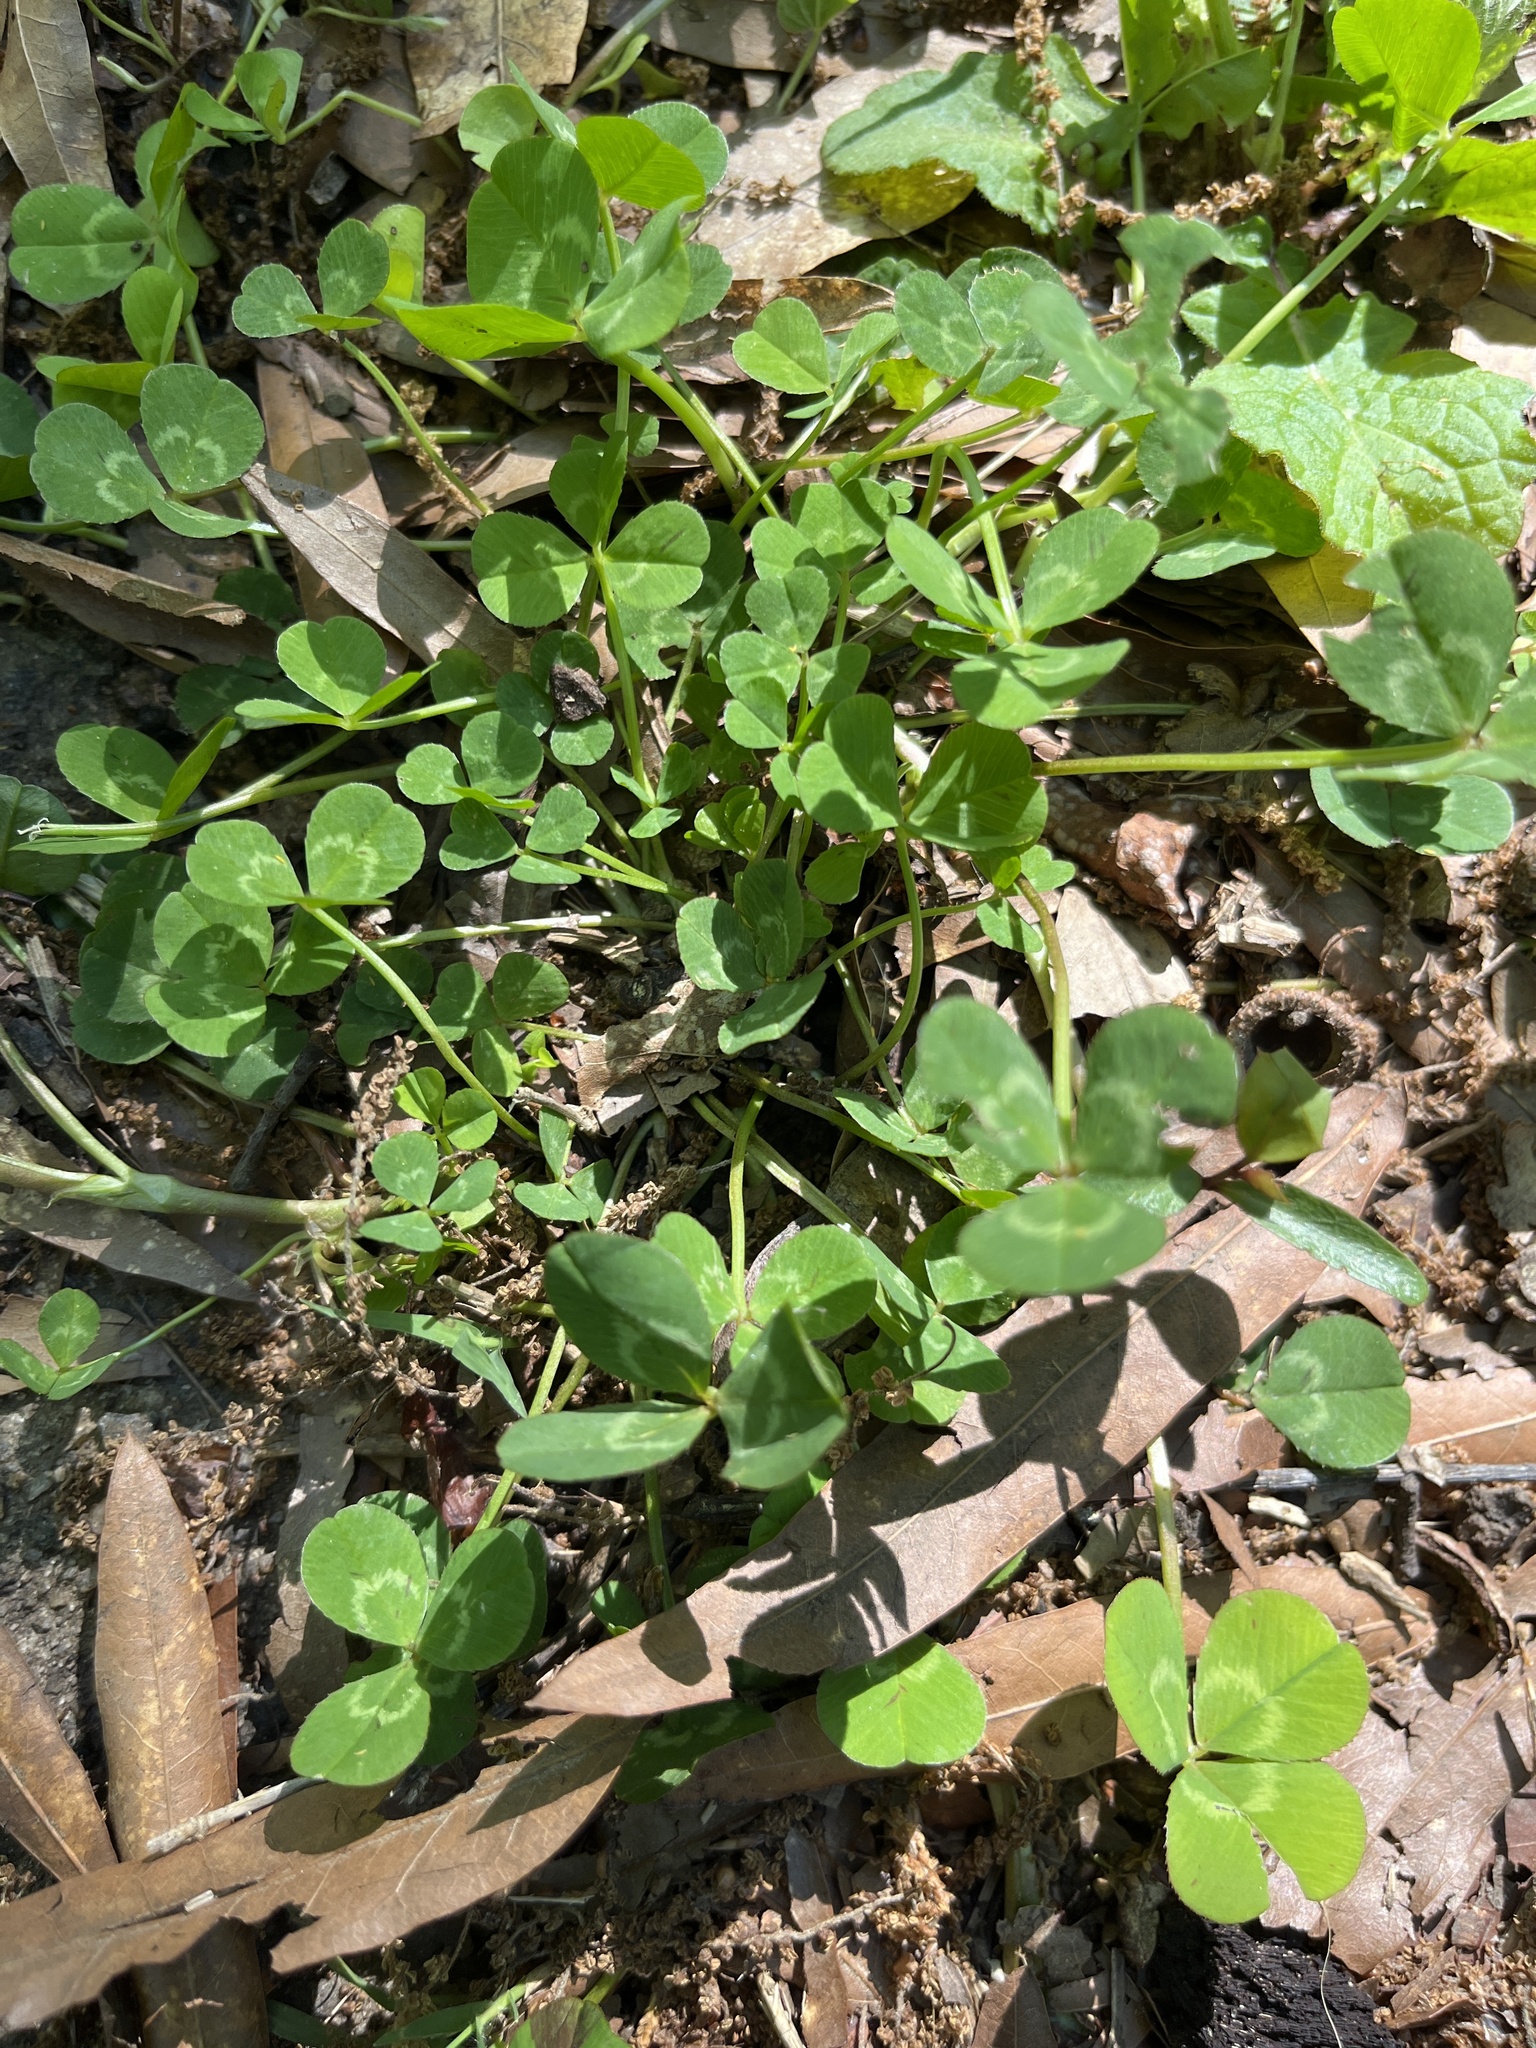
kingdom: Plantae
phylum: Tracheophyta
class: Magnoliopsida
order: Fabales
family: Fabaceae
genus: Trifolium
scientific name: Trifolium repens
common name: White clover
